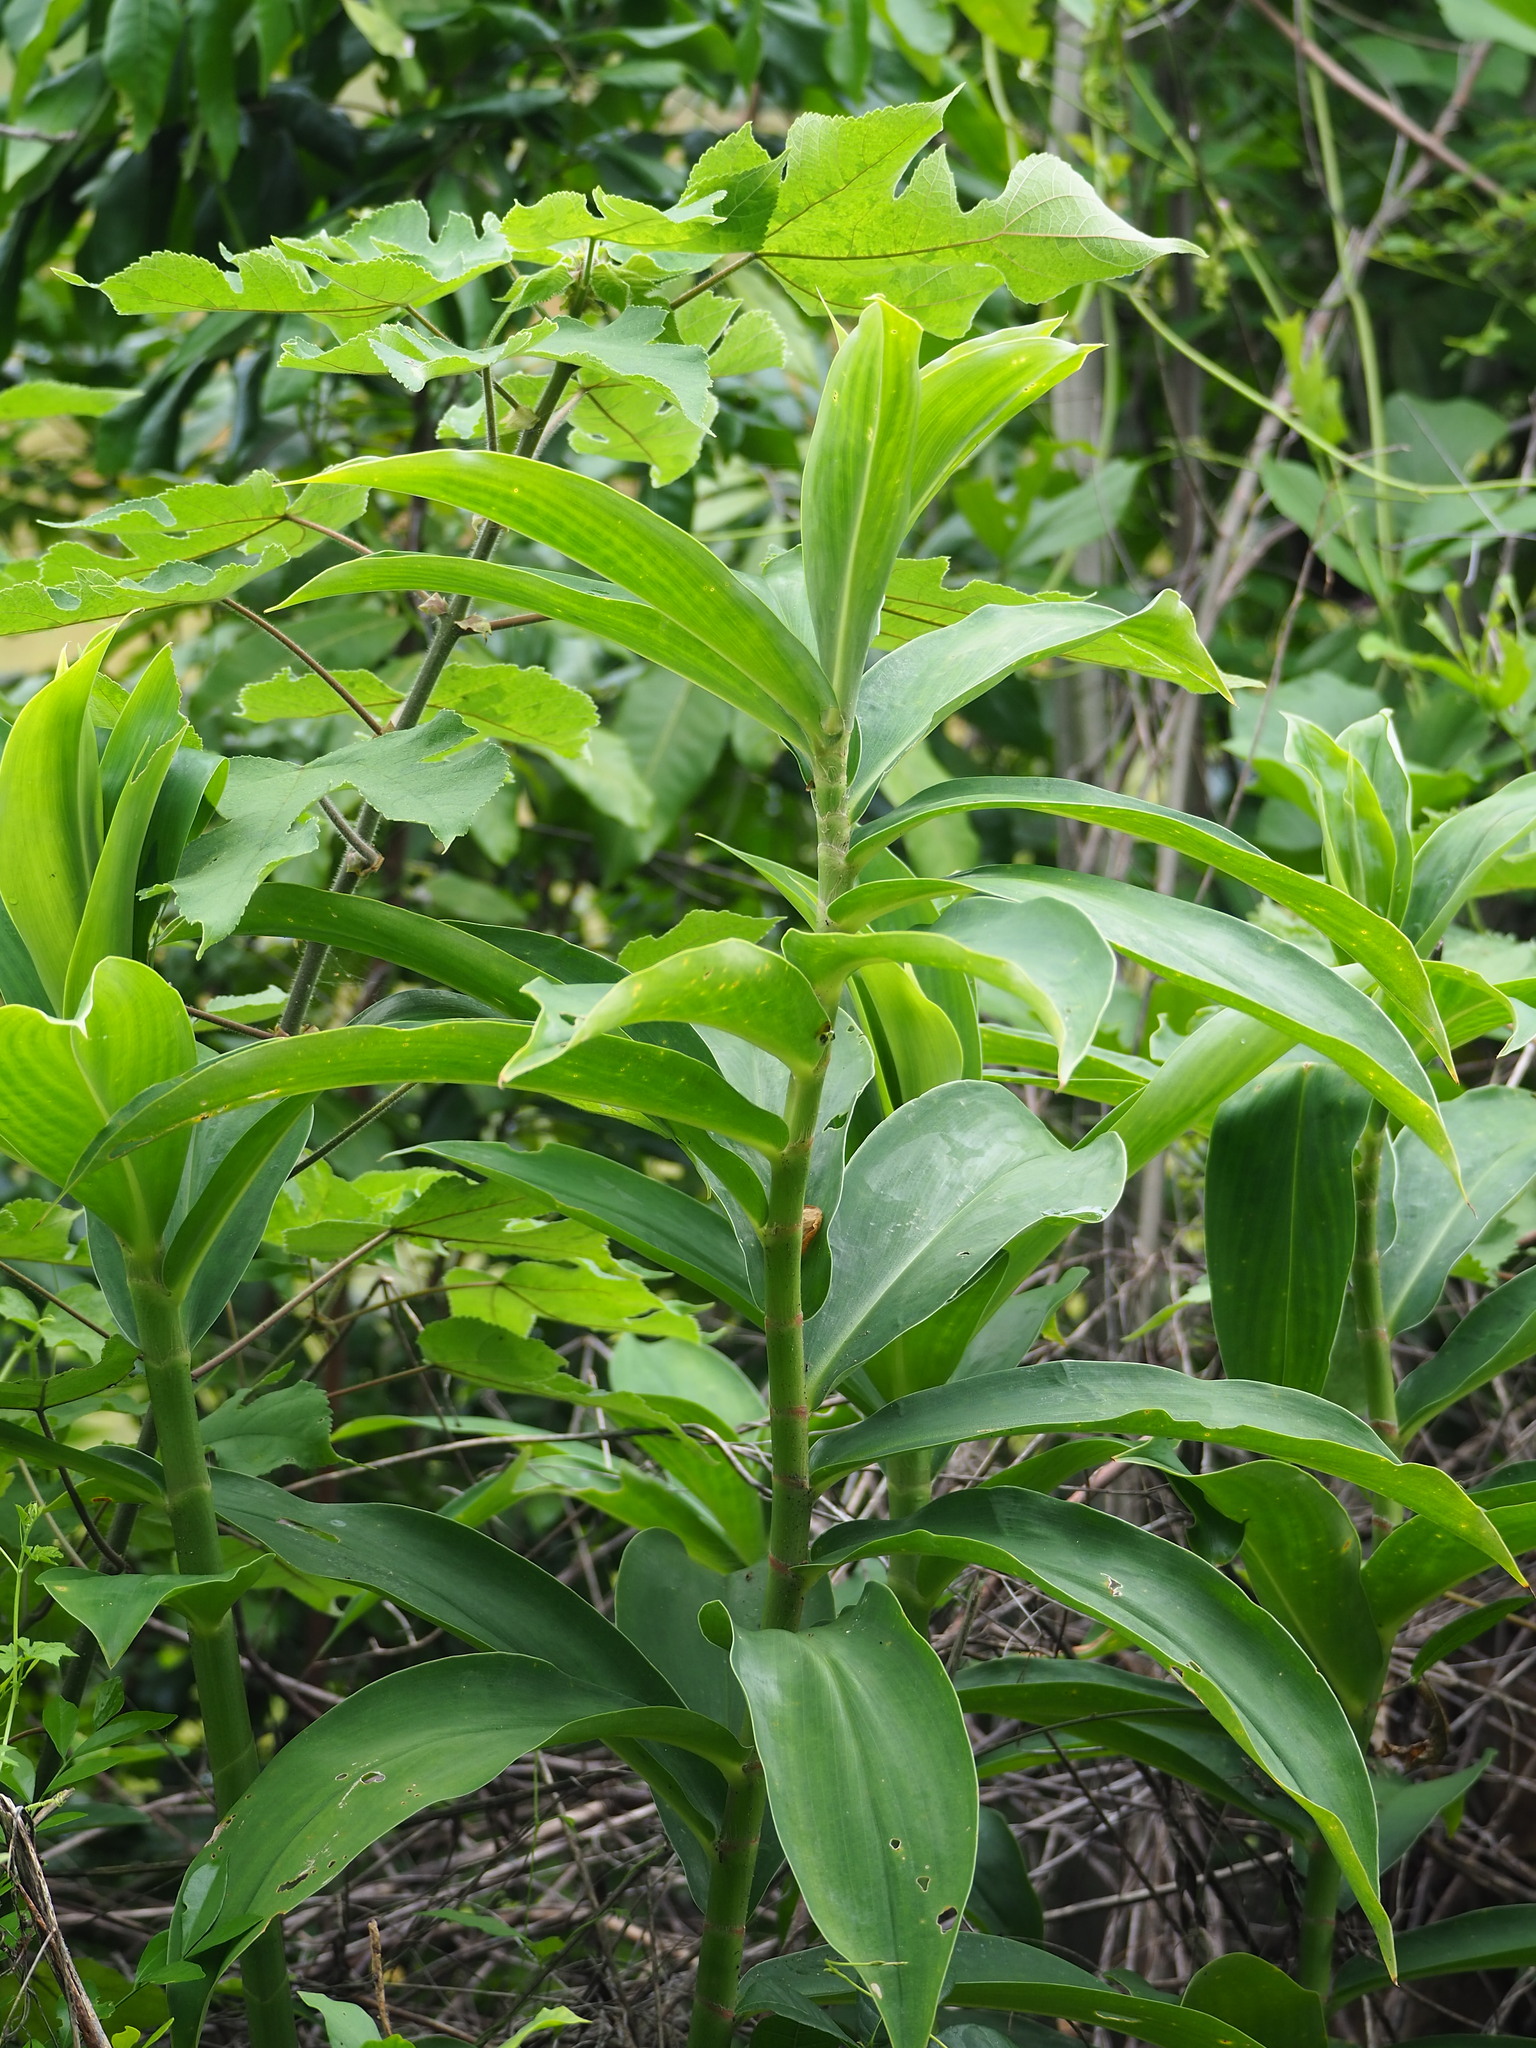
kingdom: Plantae
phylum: Tracheophyta
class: Liliopsida
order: Zingiberales
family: Costaceae
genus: Hellenia
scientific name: Hellenia speciosa
